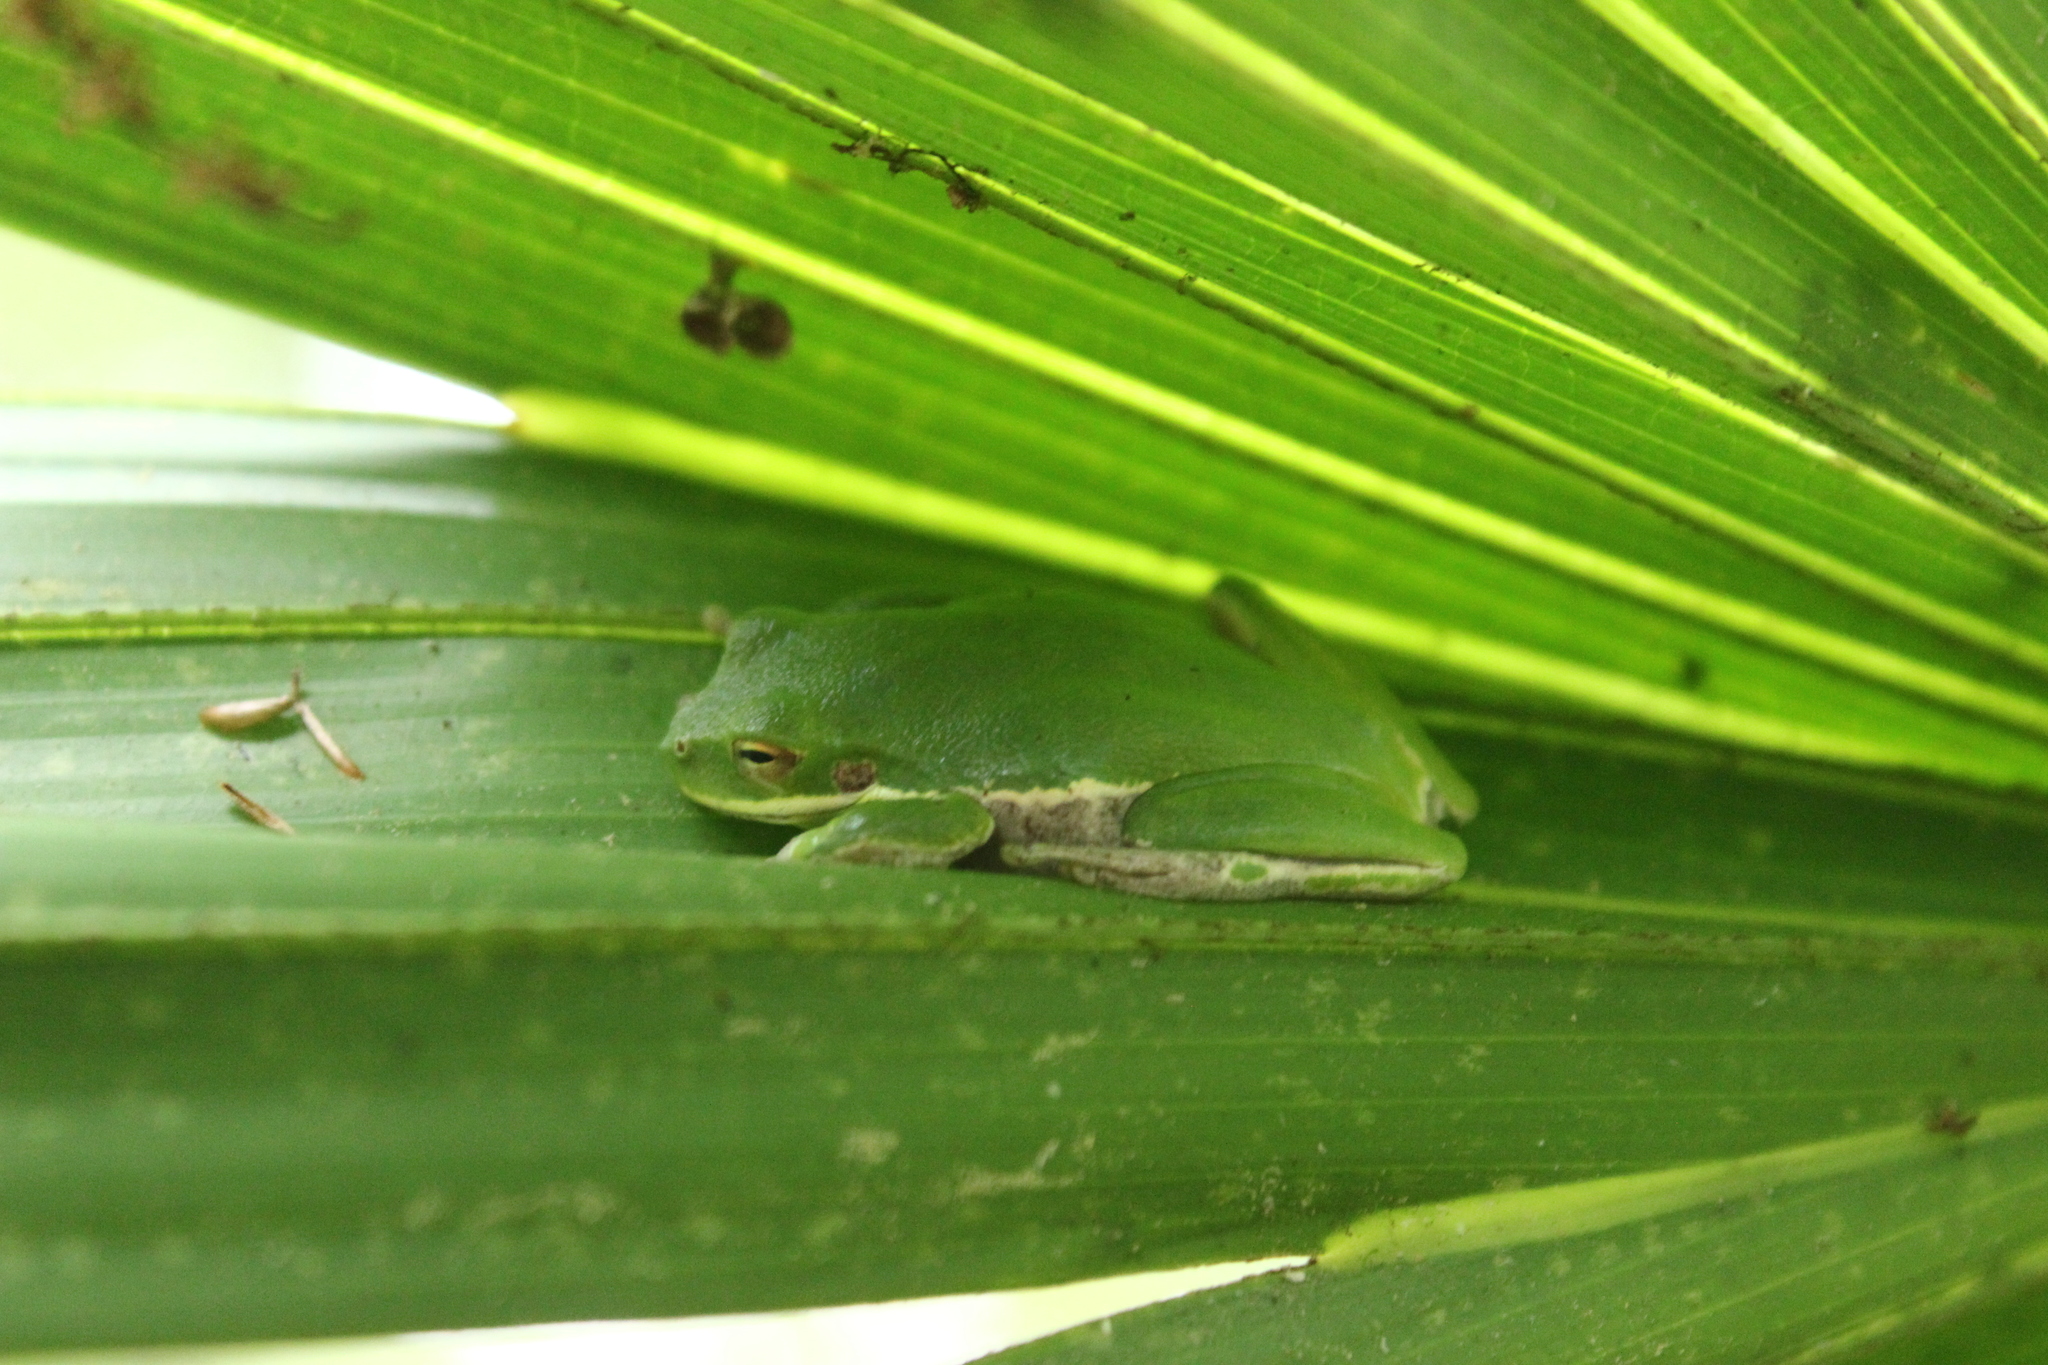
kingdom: Animalia
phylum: Chordata
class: Amphibia
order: Anura
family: Hylidae
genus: Dryophytes
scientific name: Dryophytes squirellus
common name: Squirrel treefrog
